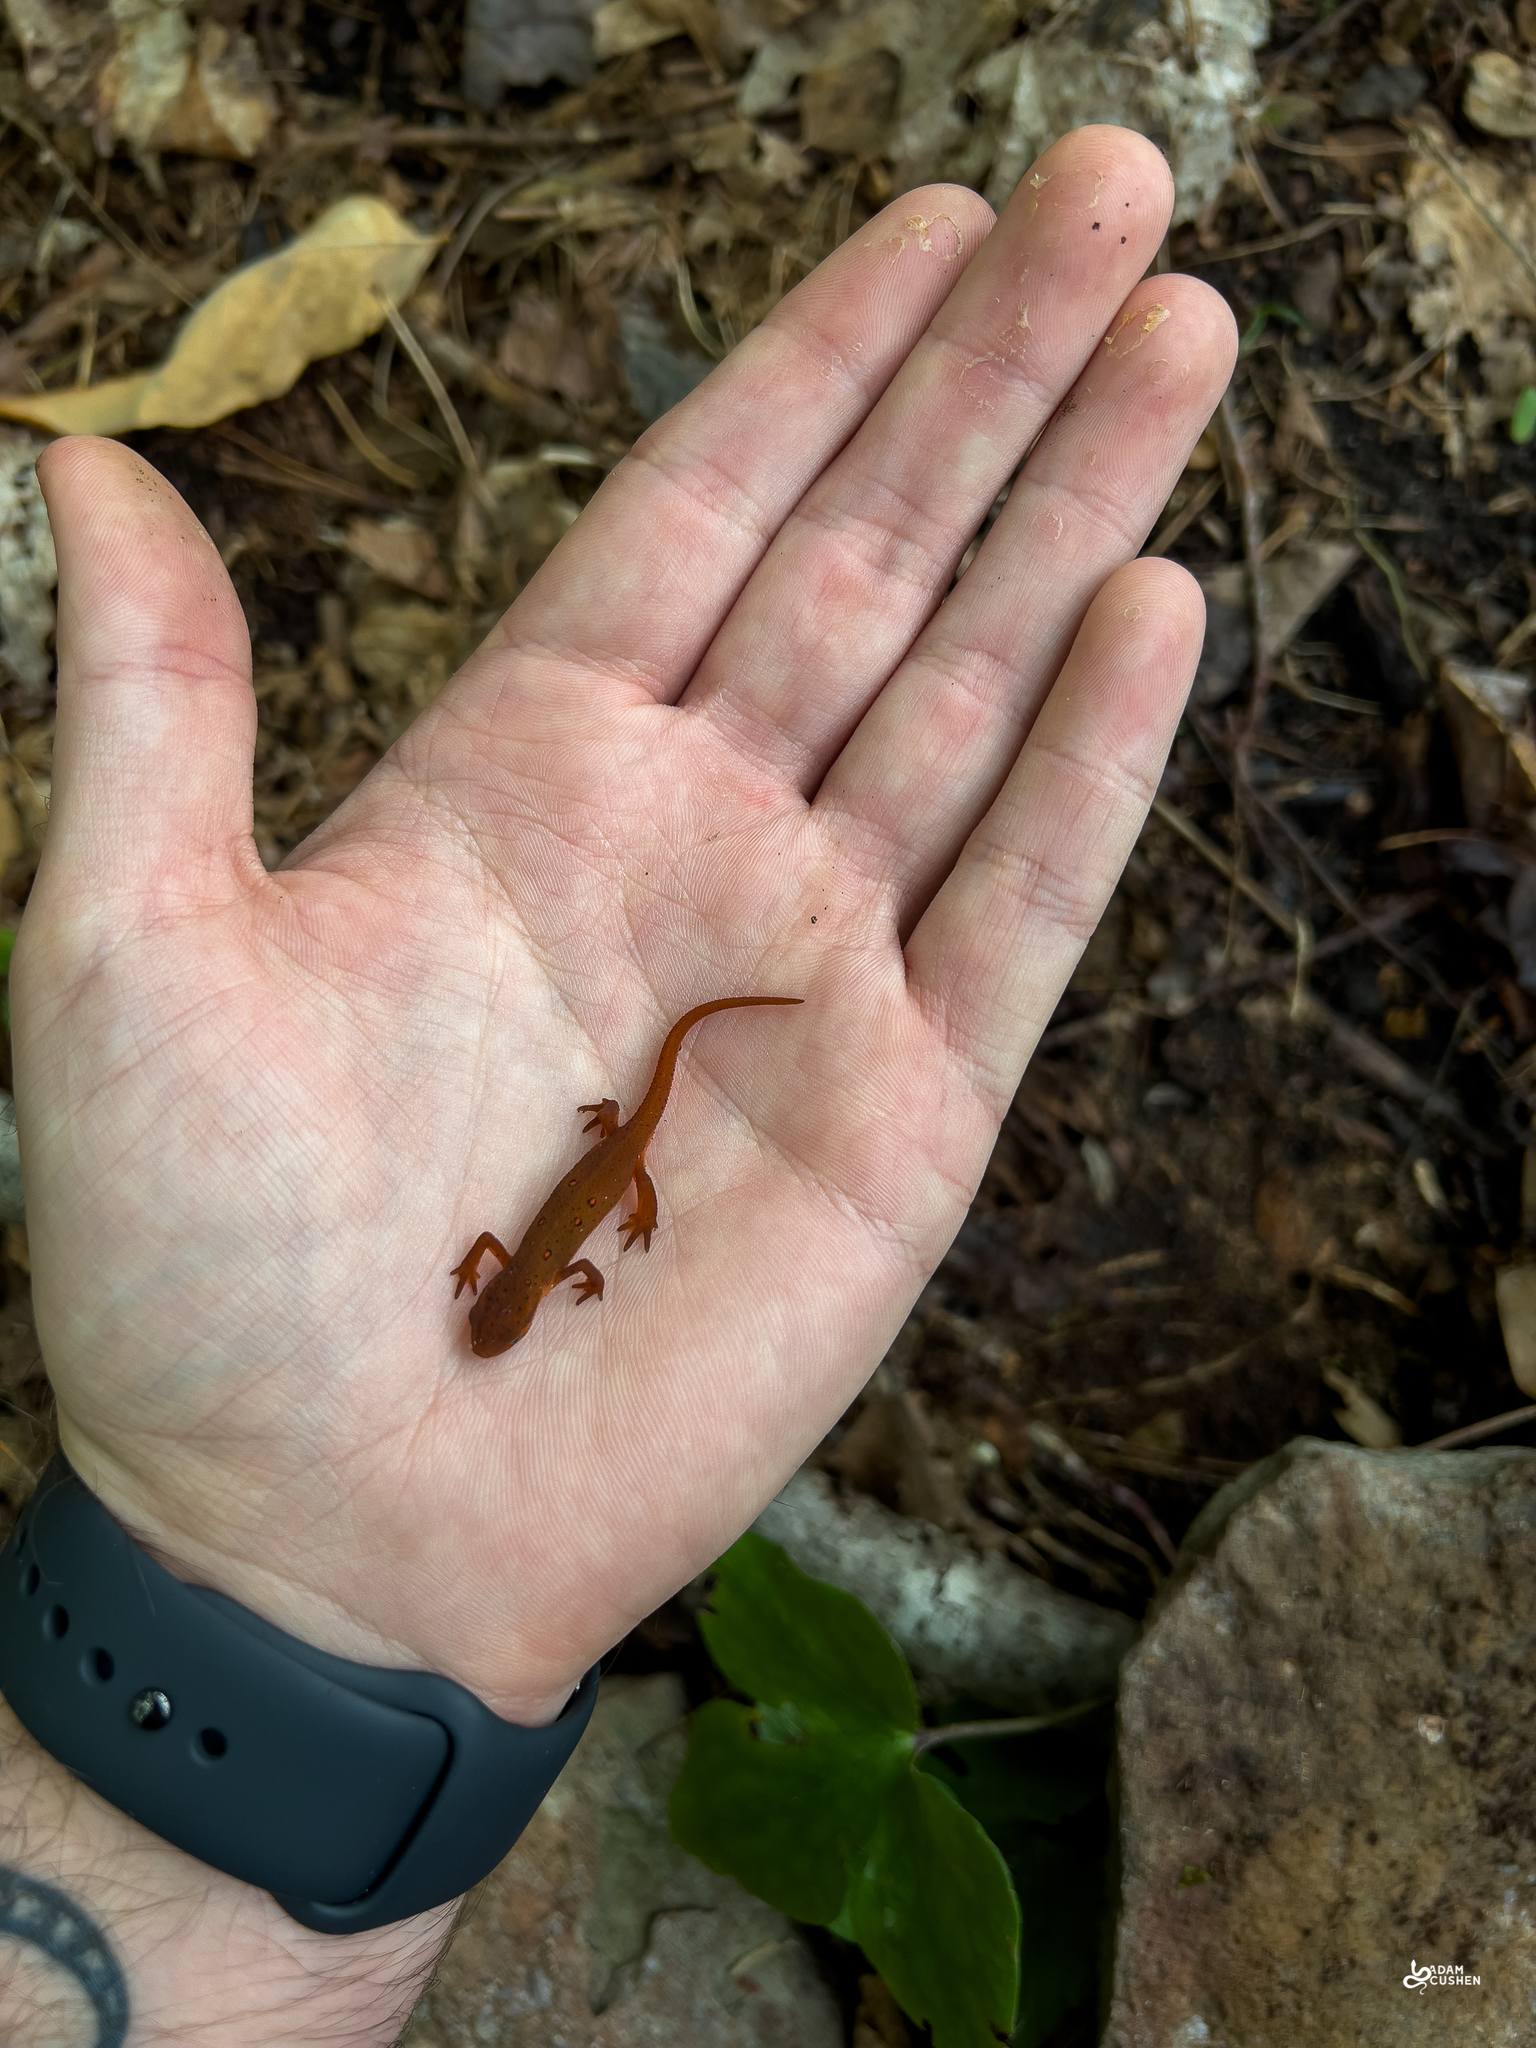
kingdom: Animalia
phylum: Chordata
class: Amphibia
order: Caudata
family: Salamandridae
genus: Notophthalmus
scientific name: Notophthalmus viridescens
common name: Eastern newt
